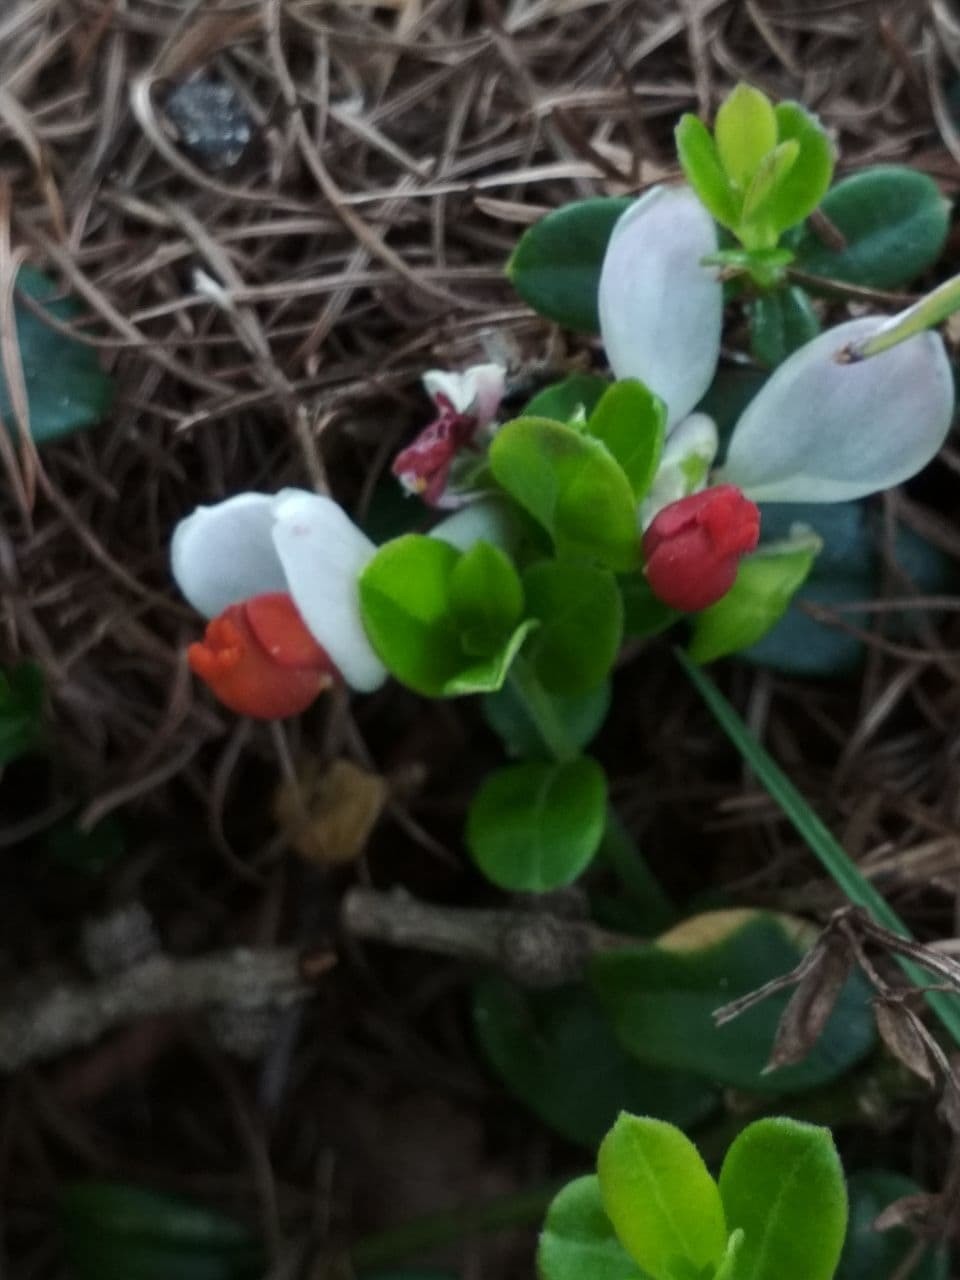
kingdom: Plantae
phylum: Tracheophyta
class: Magnoliopsida
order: Fabales
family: Polygalaceae
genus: Polygaloides
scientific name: Polygaloides chamaebuxus
